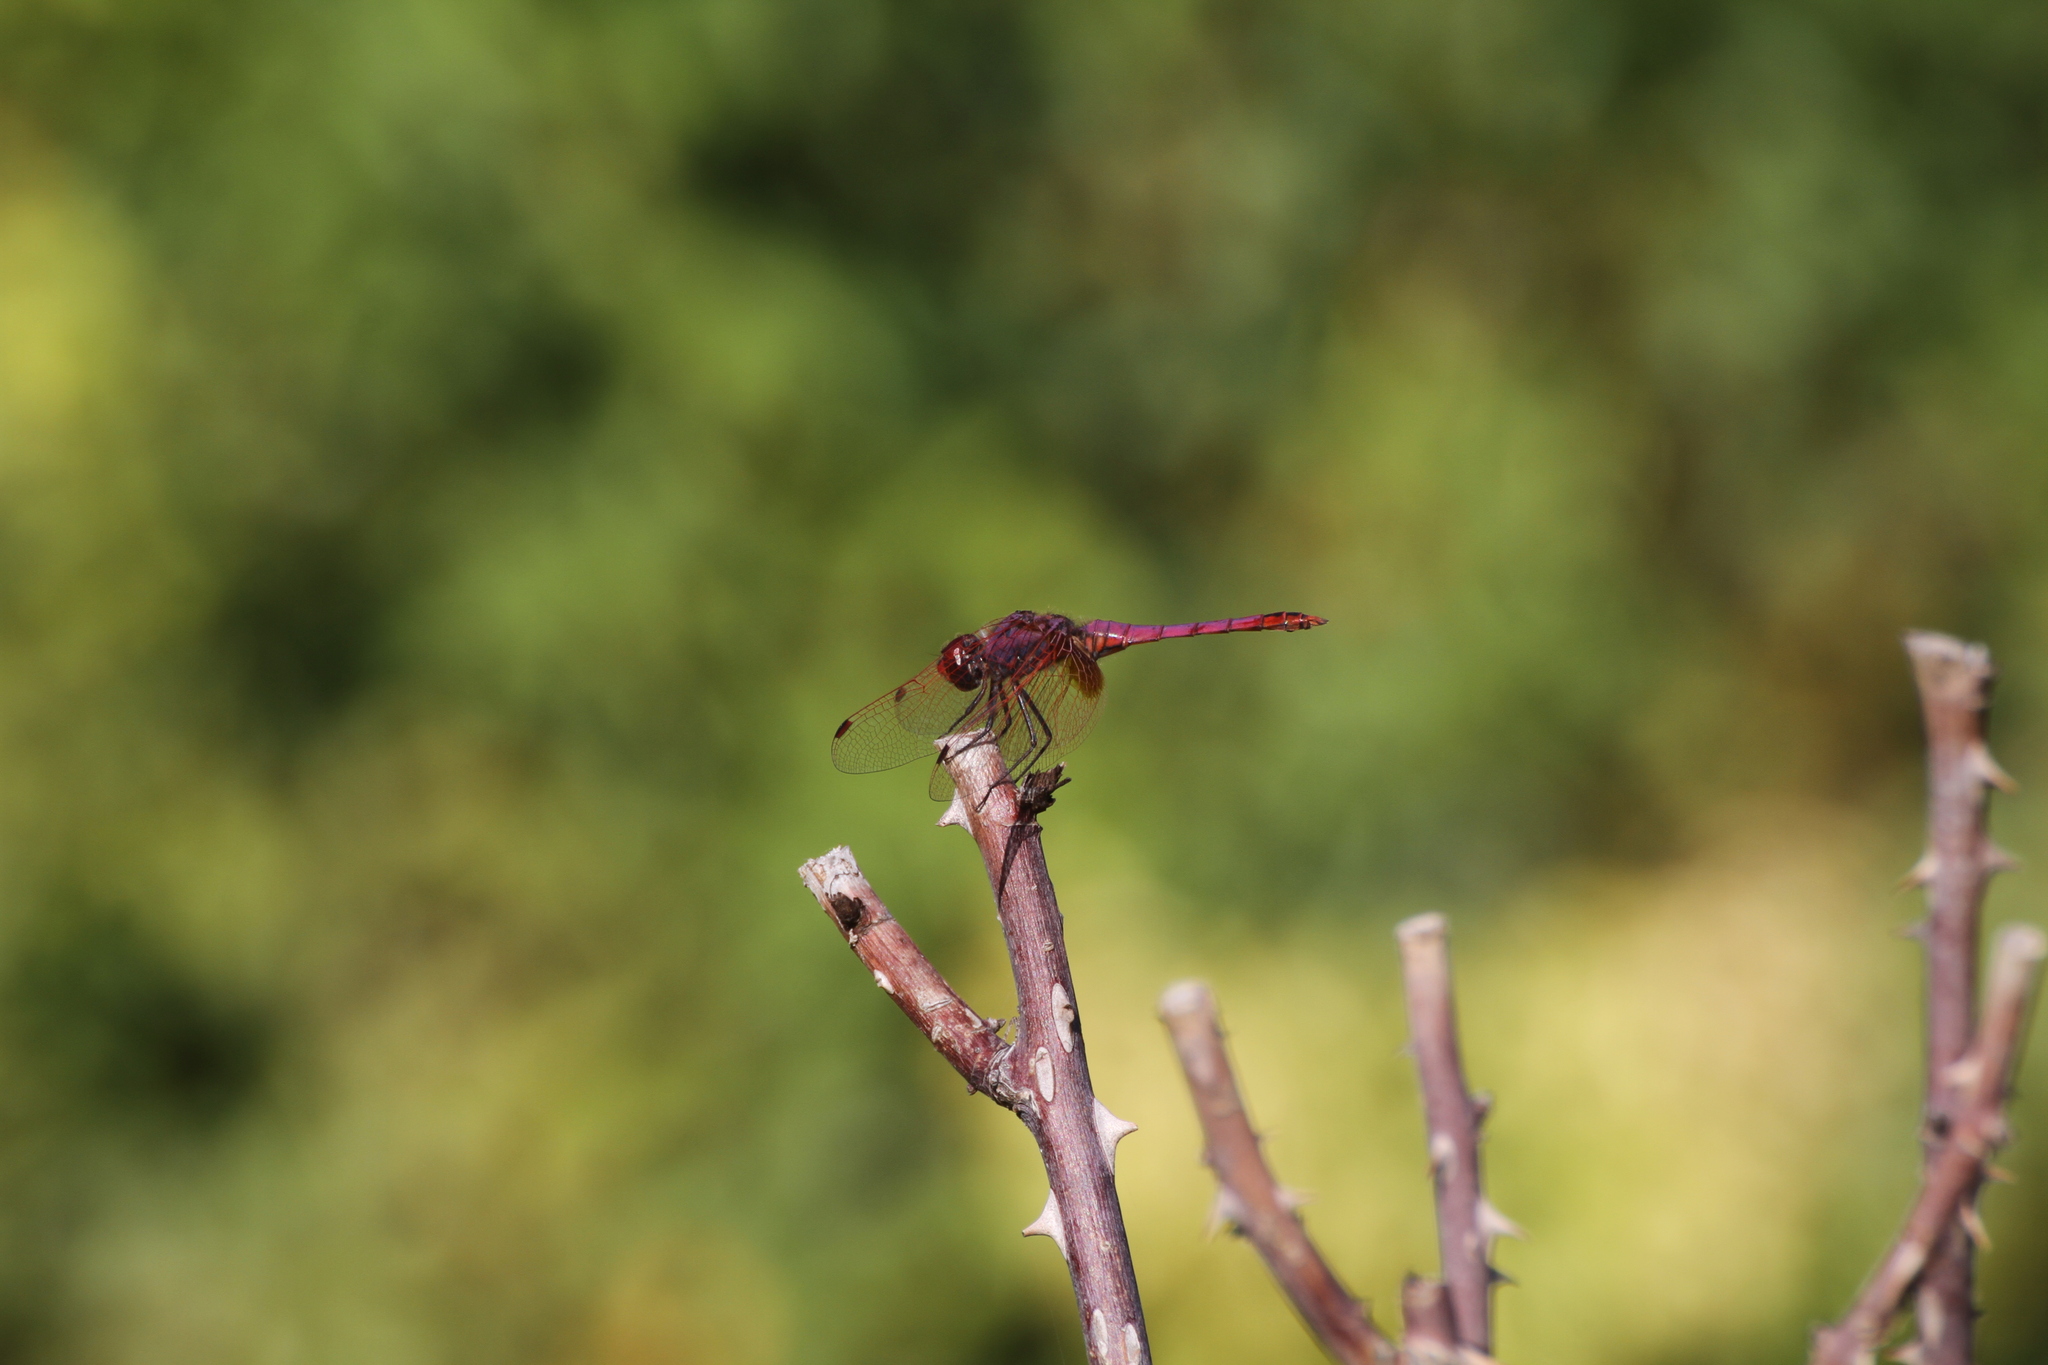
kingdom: Animalia
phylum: Arthropoda
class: Insecta
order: Odonata
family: Libellulidae
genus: Trithemis
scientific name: Trithemis annulata
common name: Violet dropwing
